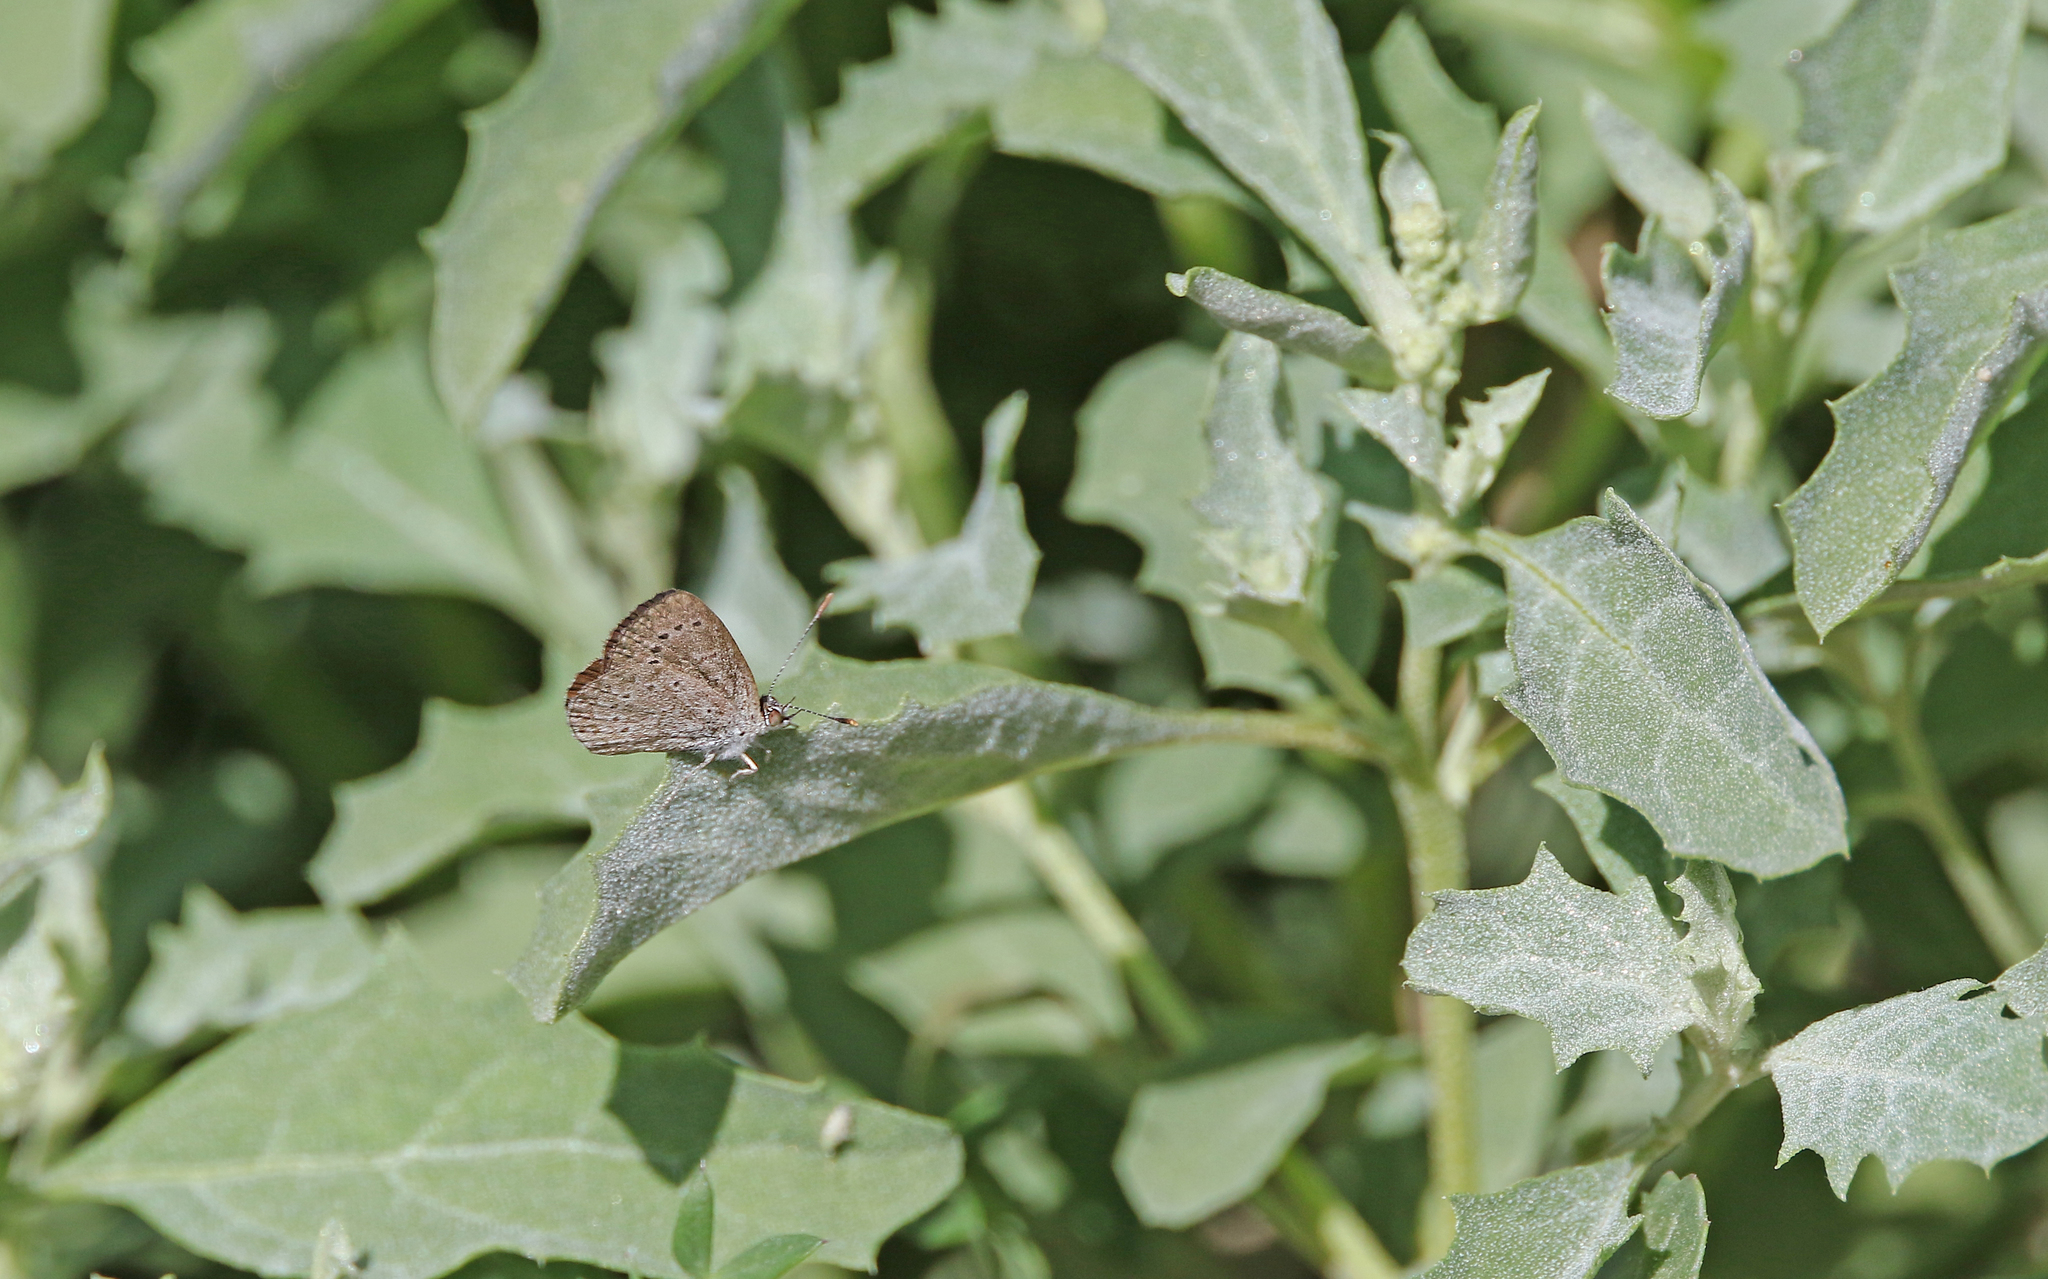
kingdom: Animalia
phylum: Arthropoda
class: Insecta
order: Lepidoptera
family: Lycaenidae
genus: Zizeeria
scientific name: Zizeeria knysna
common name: African grass blue
